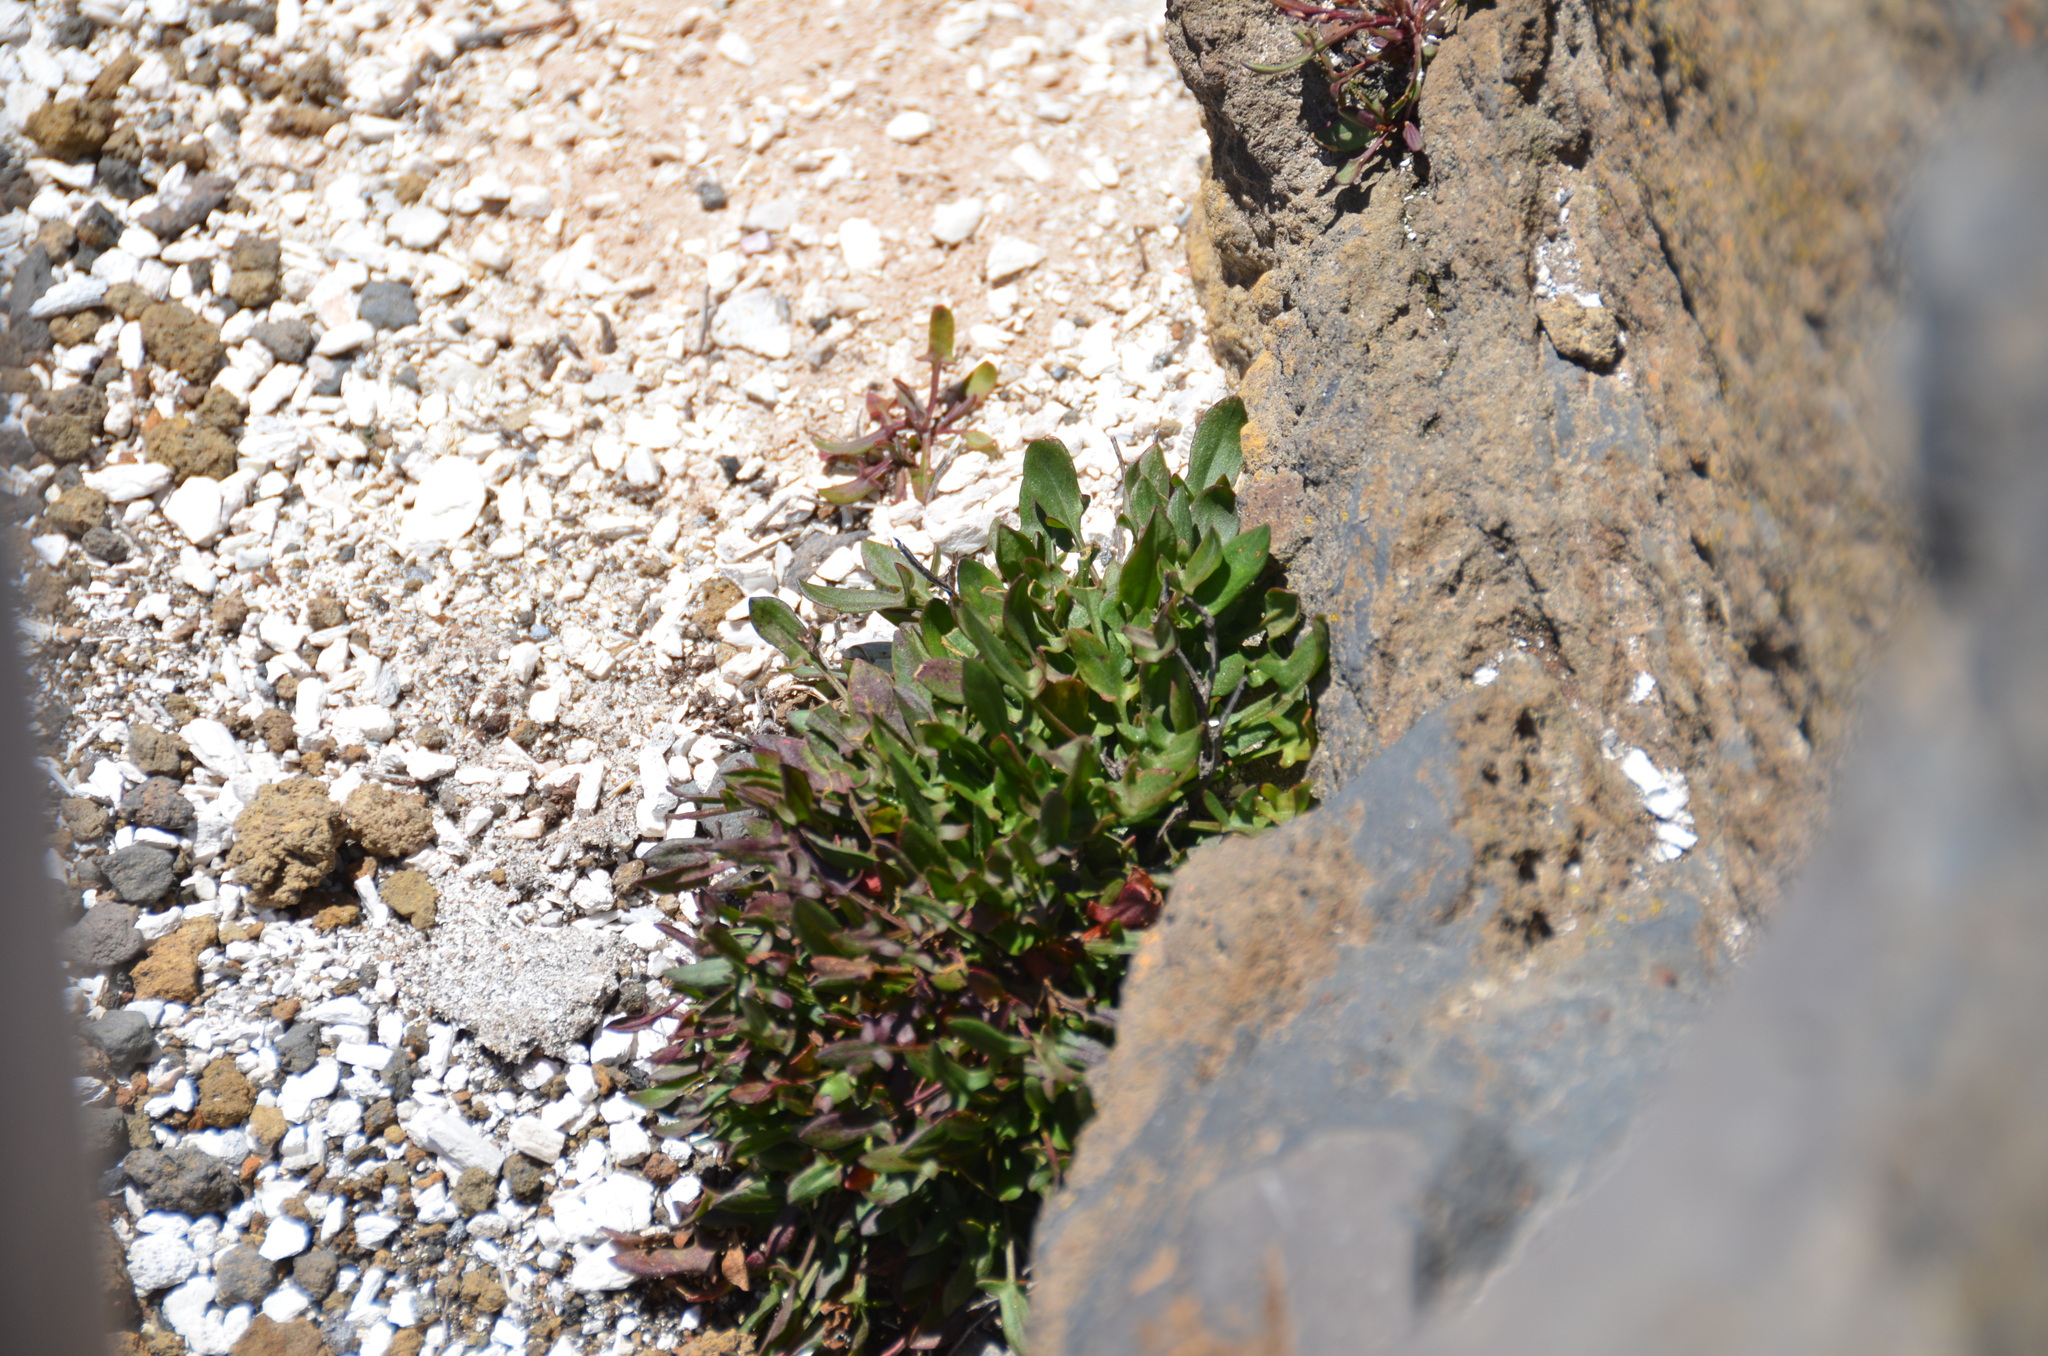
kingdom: Plantae
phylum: Tracheophyta
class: Magnoliopsida
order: Caryophyllales
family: Polygonaceae
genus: Rumex
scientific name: Rumex acetosella
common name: Common sheep sorrel
